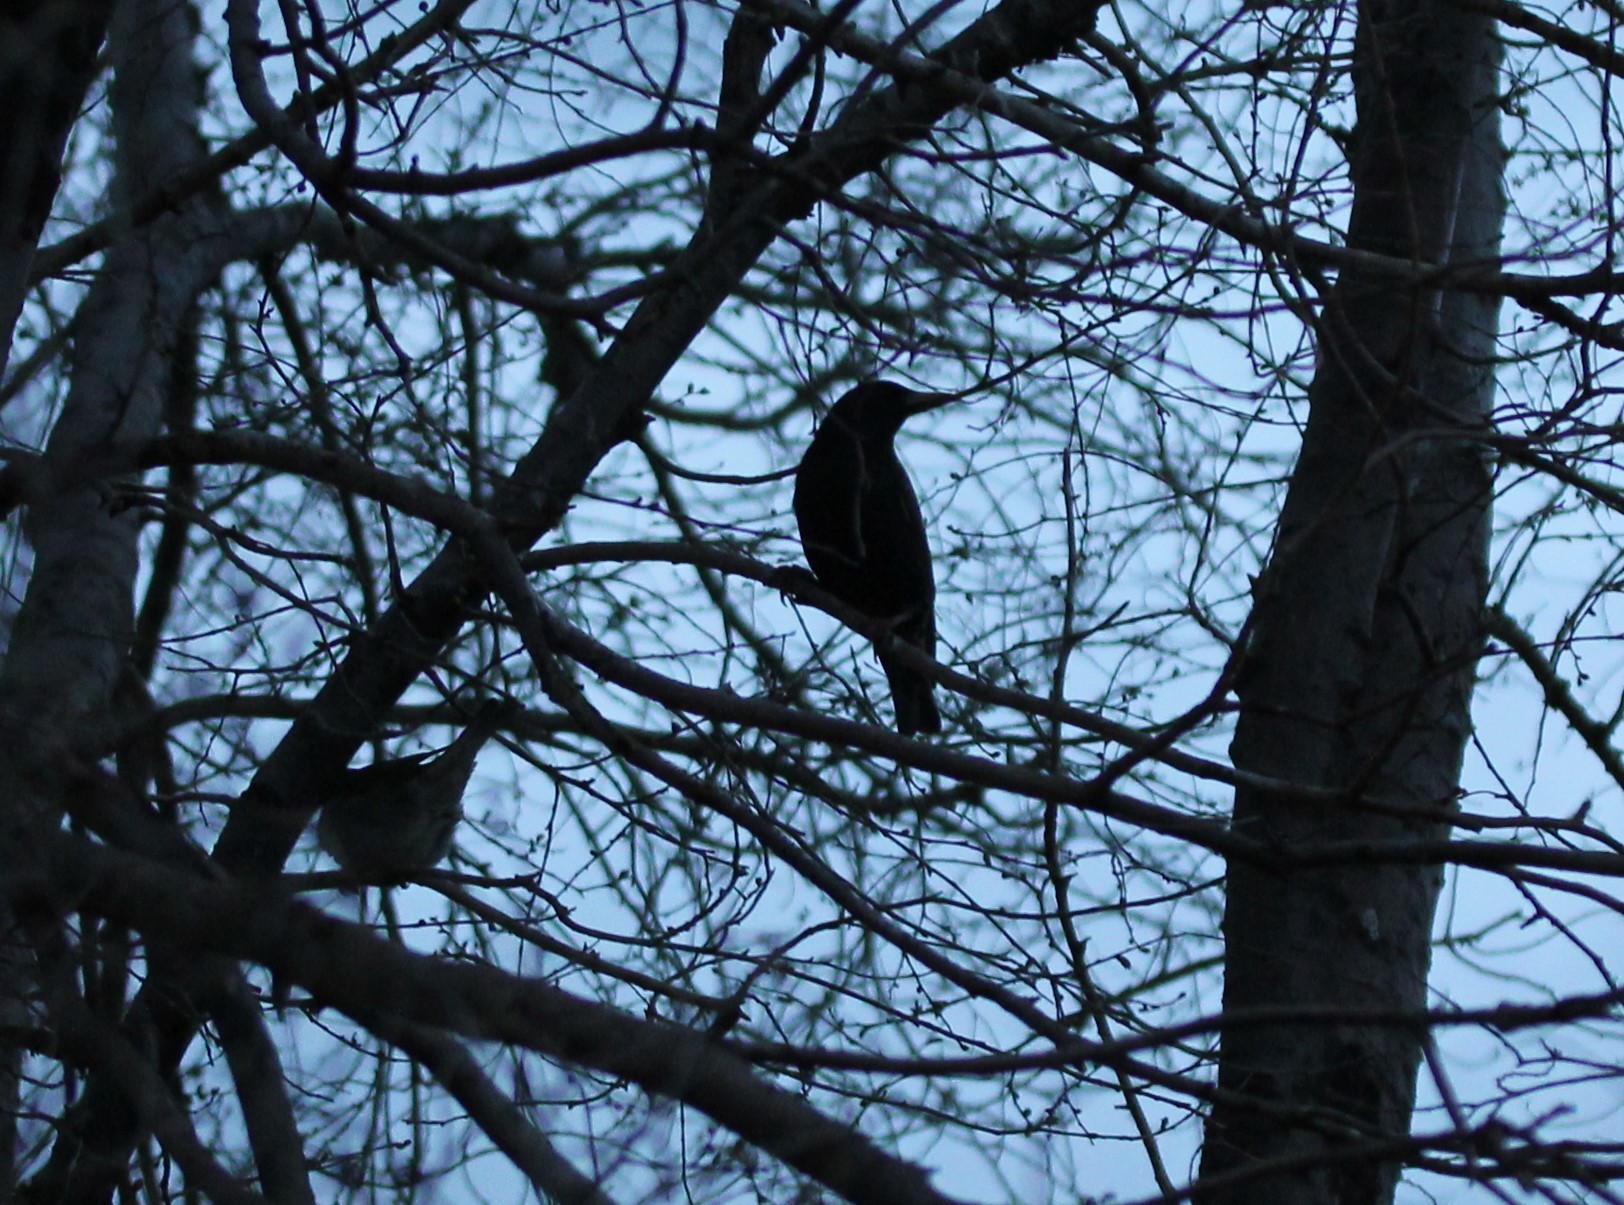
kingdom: Animalia
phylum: Chordata
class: Aves
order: Passeriformes
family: Corvidae
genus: Corvus
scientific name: Corvus brachyrhynchos
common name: American crow
